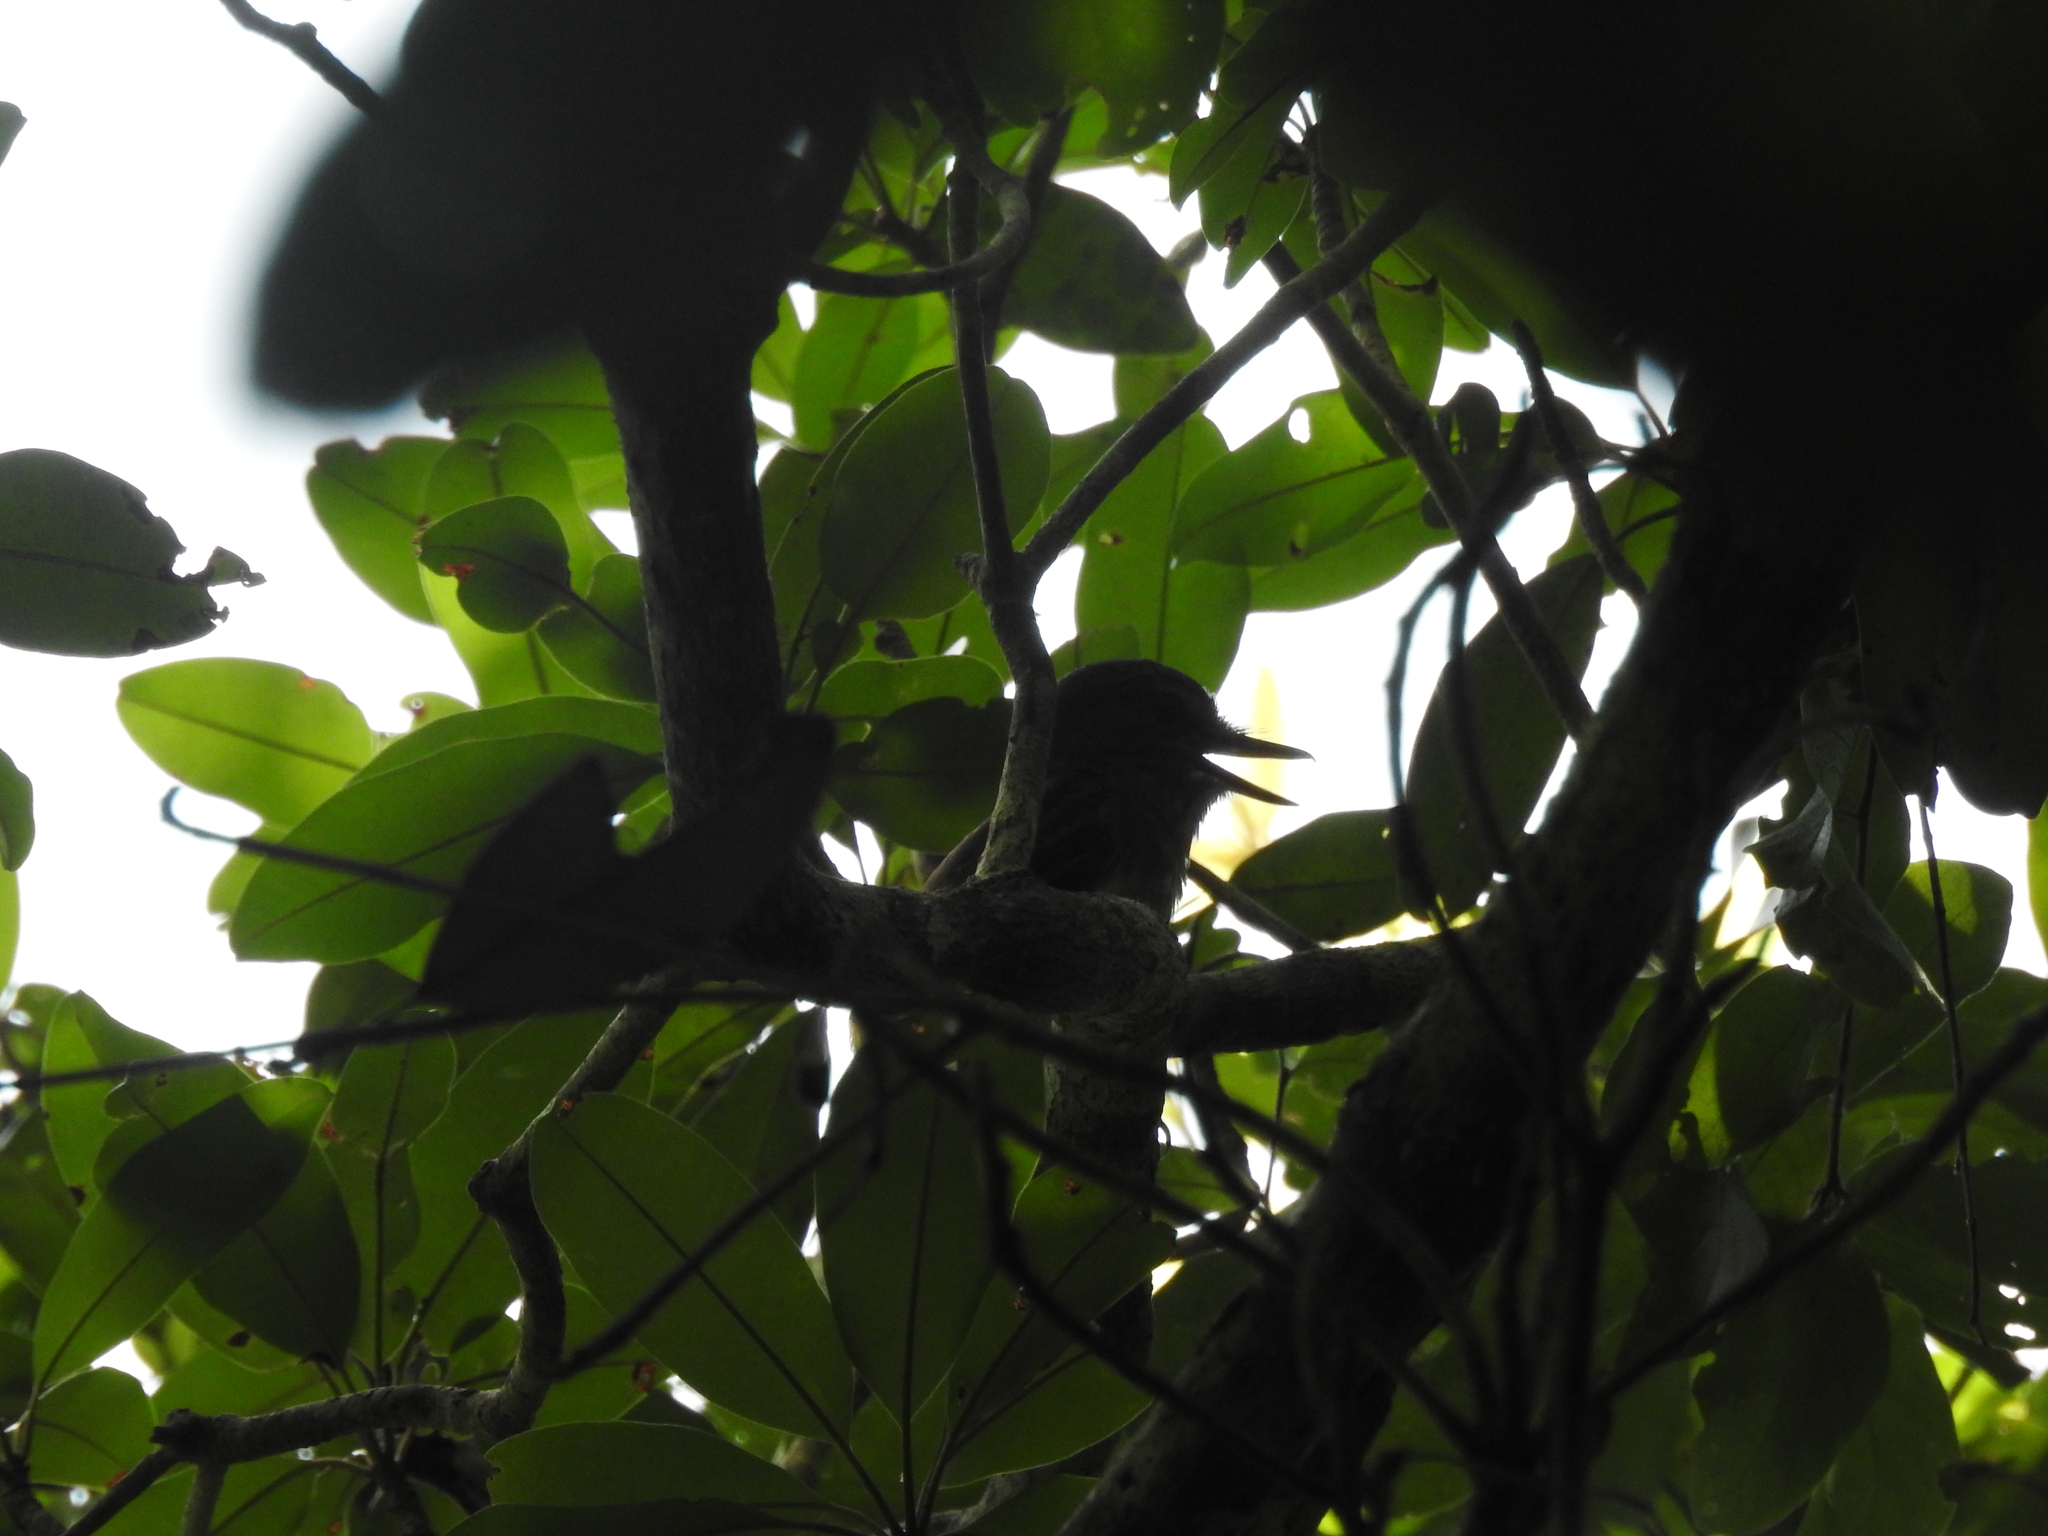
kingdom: Animalia
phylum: Chordata
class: Aves
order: Passeriformes
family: Tyrannidae
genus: Attila
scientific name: Attila spadiceus
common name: Bright-rumped attila
